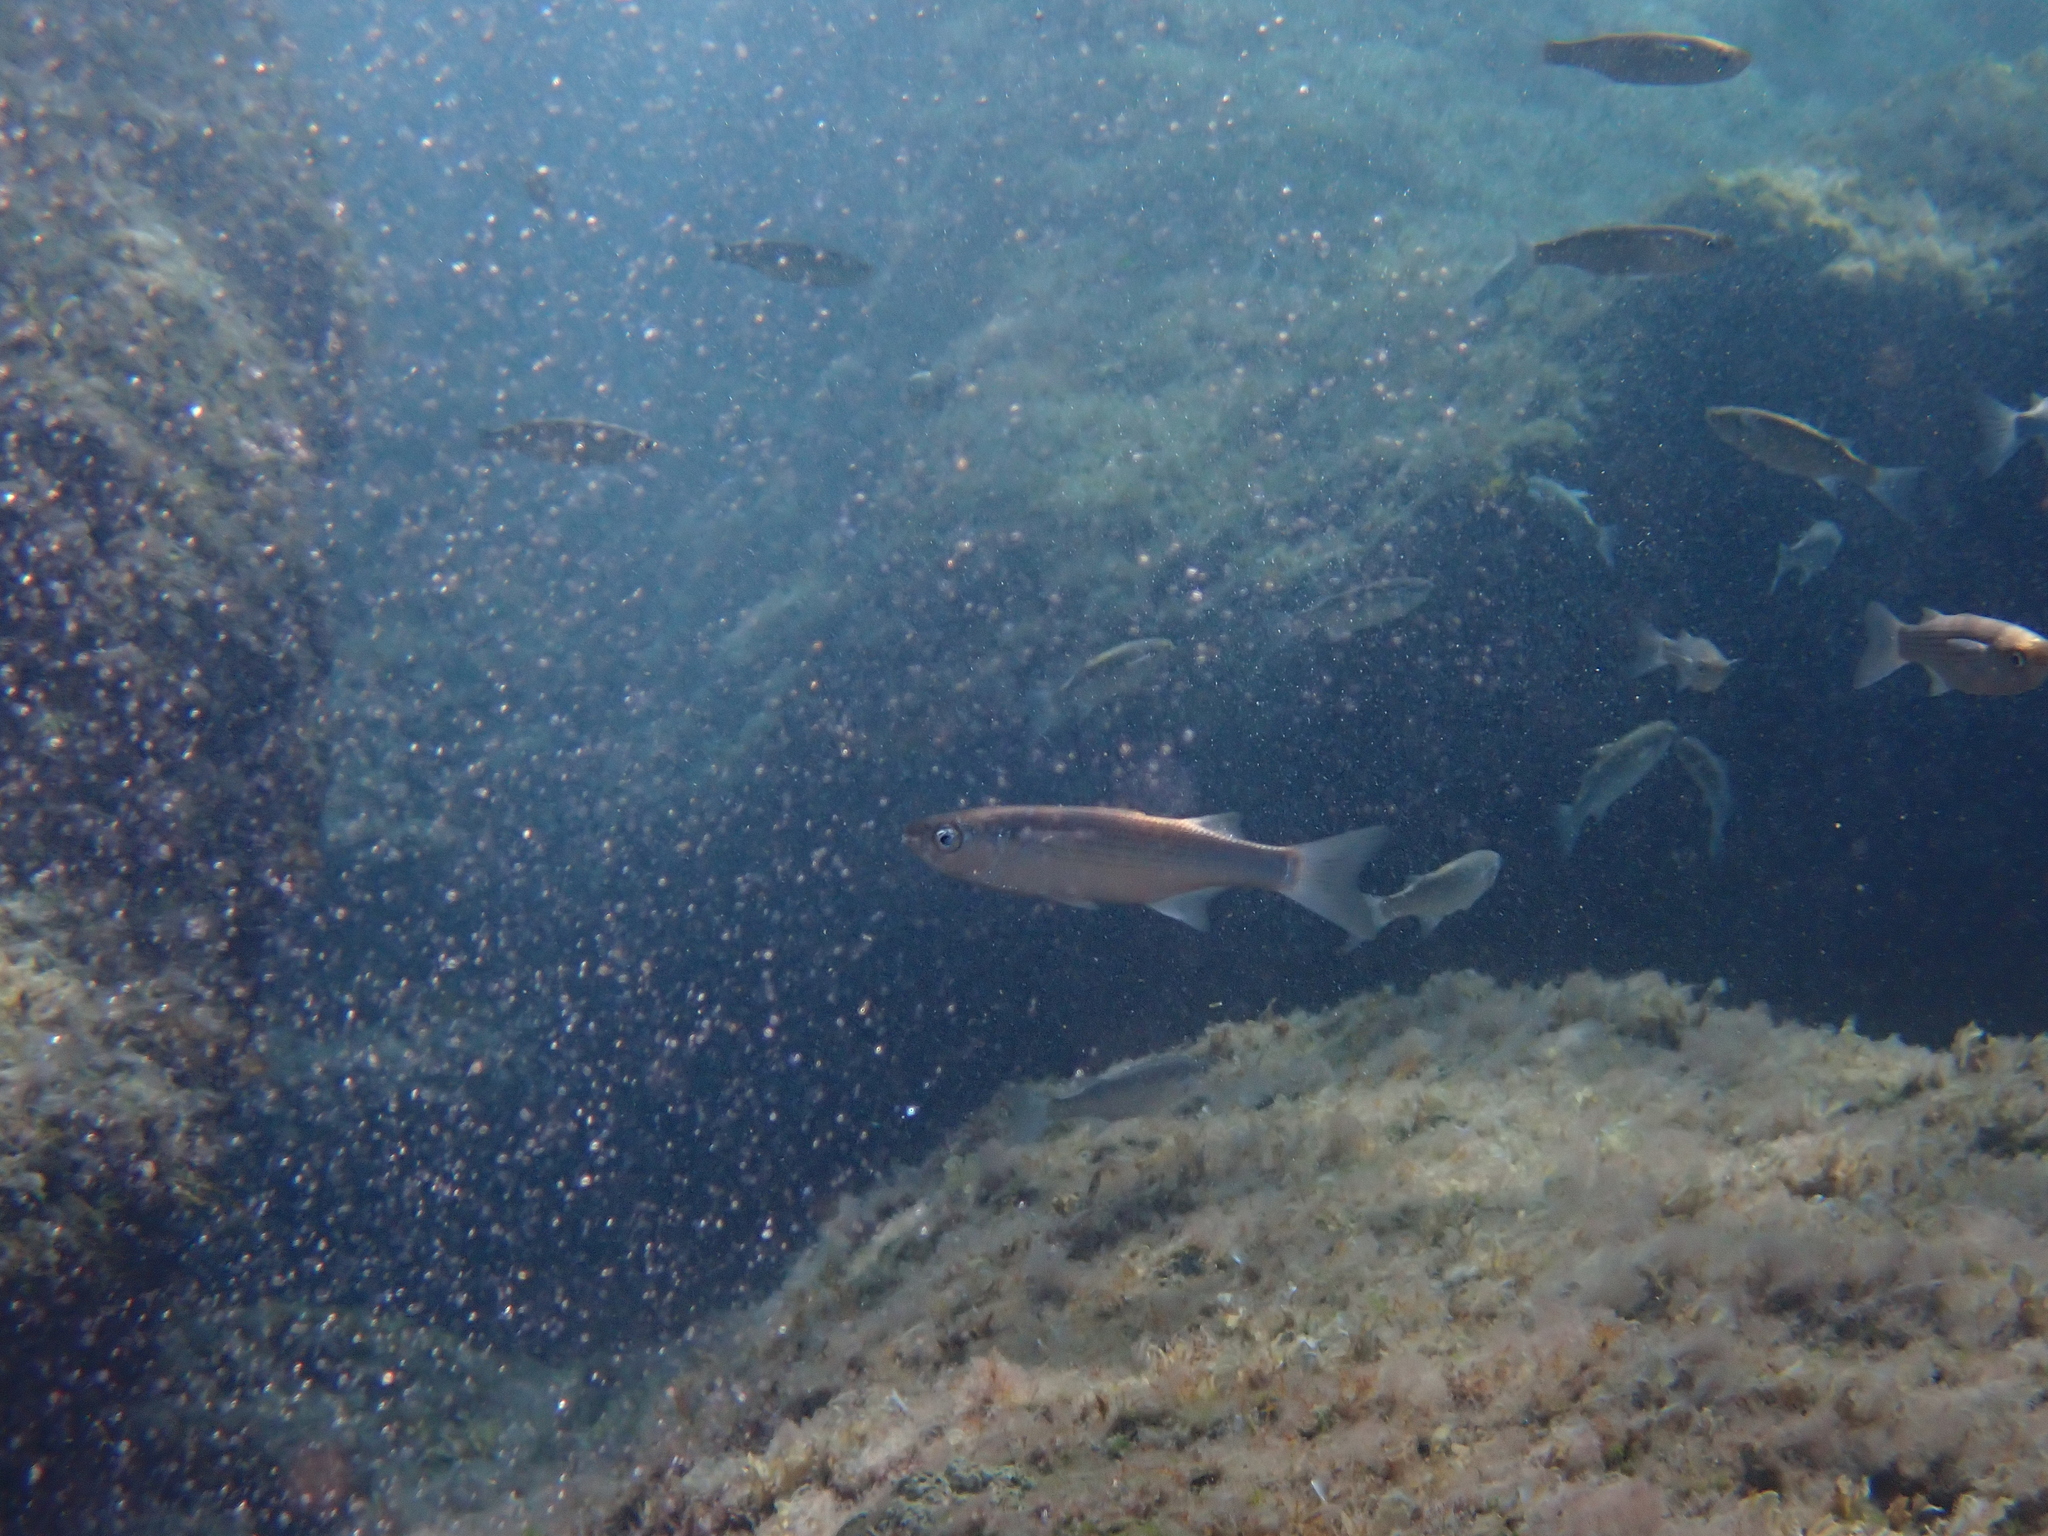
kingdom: Animalia
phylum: Chordata
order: Mugiliformes
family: Mugilidae
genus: Oedalechilus
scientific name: Oedalechilus labeo
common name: Boxlip mullet
